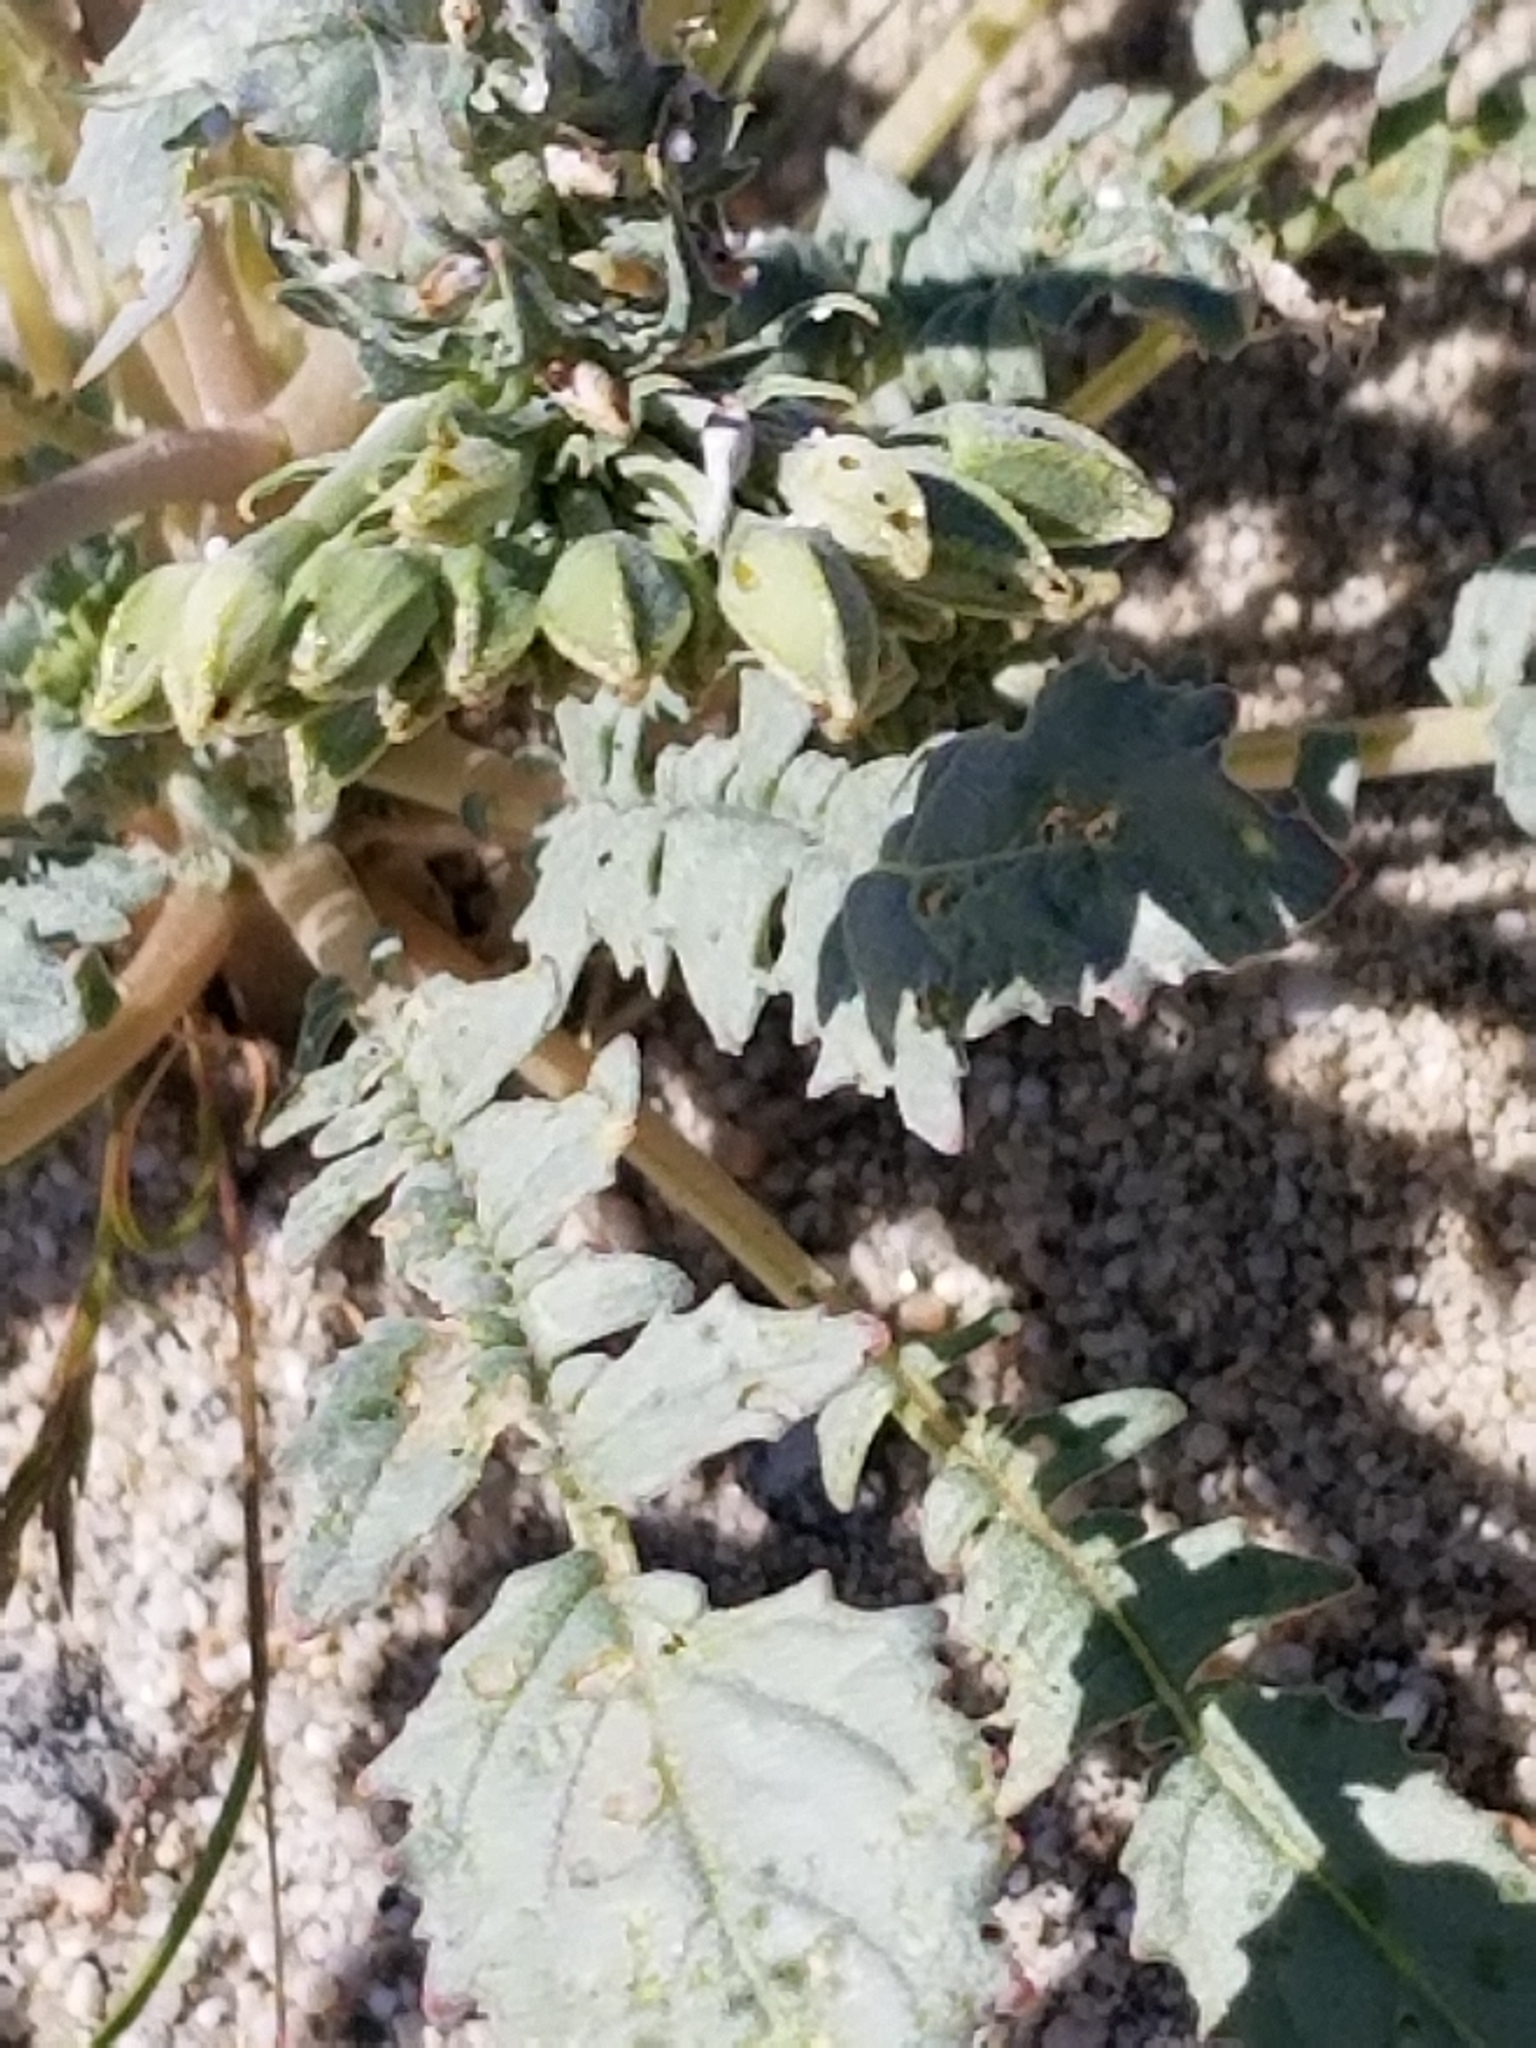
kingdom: Plantae
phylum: Tracheophyta
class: Magnoliopsida
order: Myrtales
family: Onagraceae
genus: Chylismia
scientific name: Chylismia claviformis
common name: Browneyes
